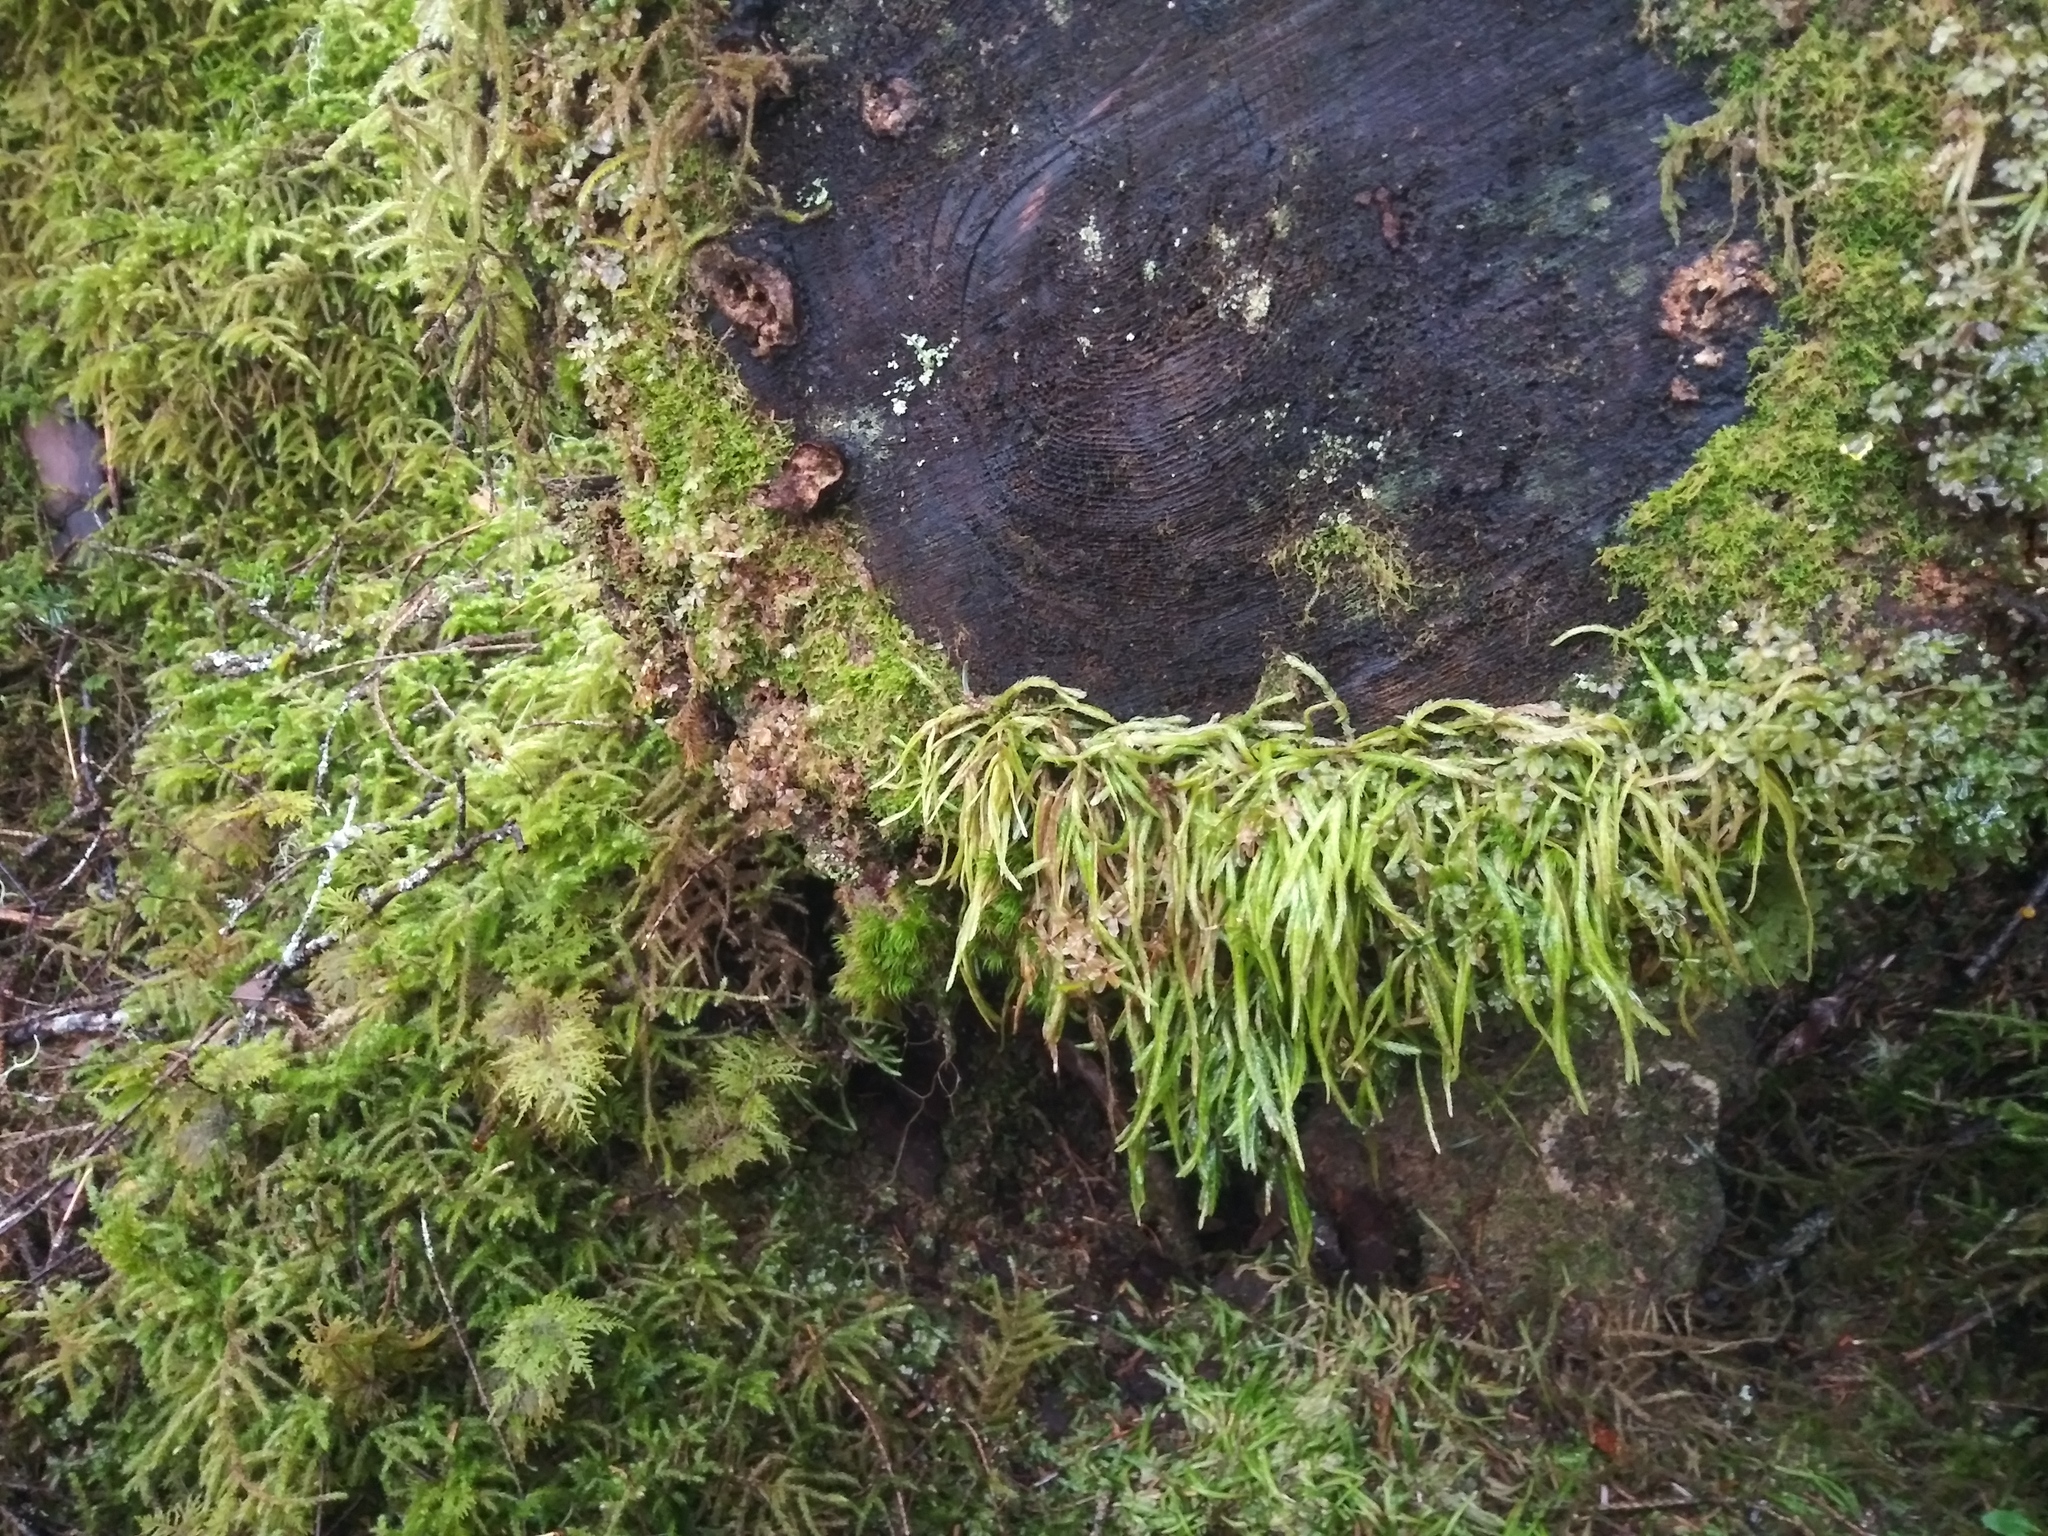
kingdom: Plantae
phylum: Bryophyta
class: Bryopsida
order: Hypnales
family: Plagiotheciaceae
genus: Plagiothecium
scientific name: Plagiothecium undulatum
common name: Waved silk-moss
